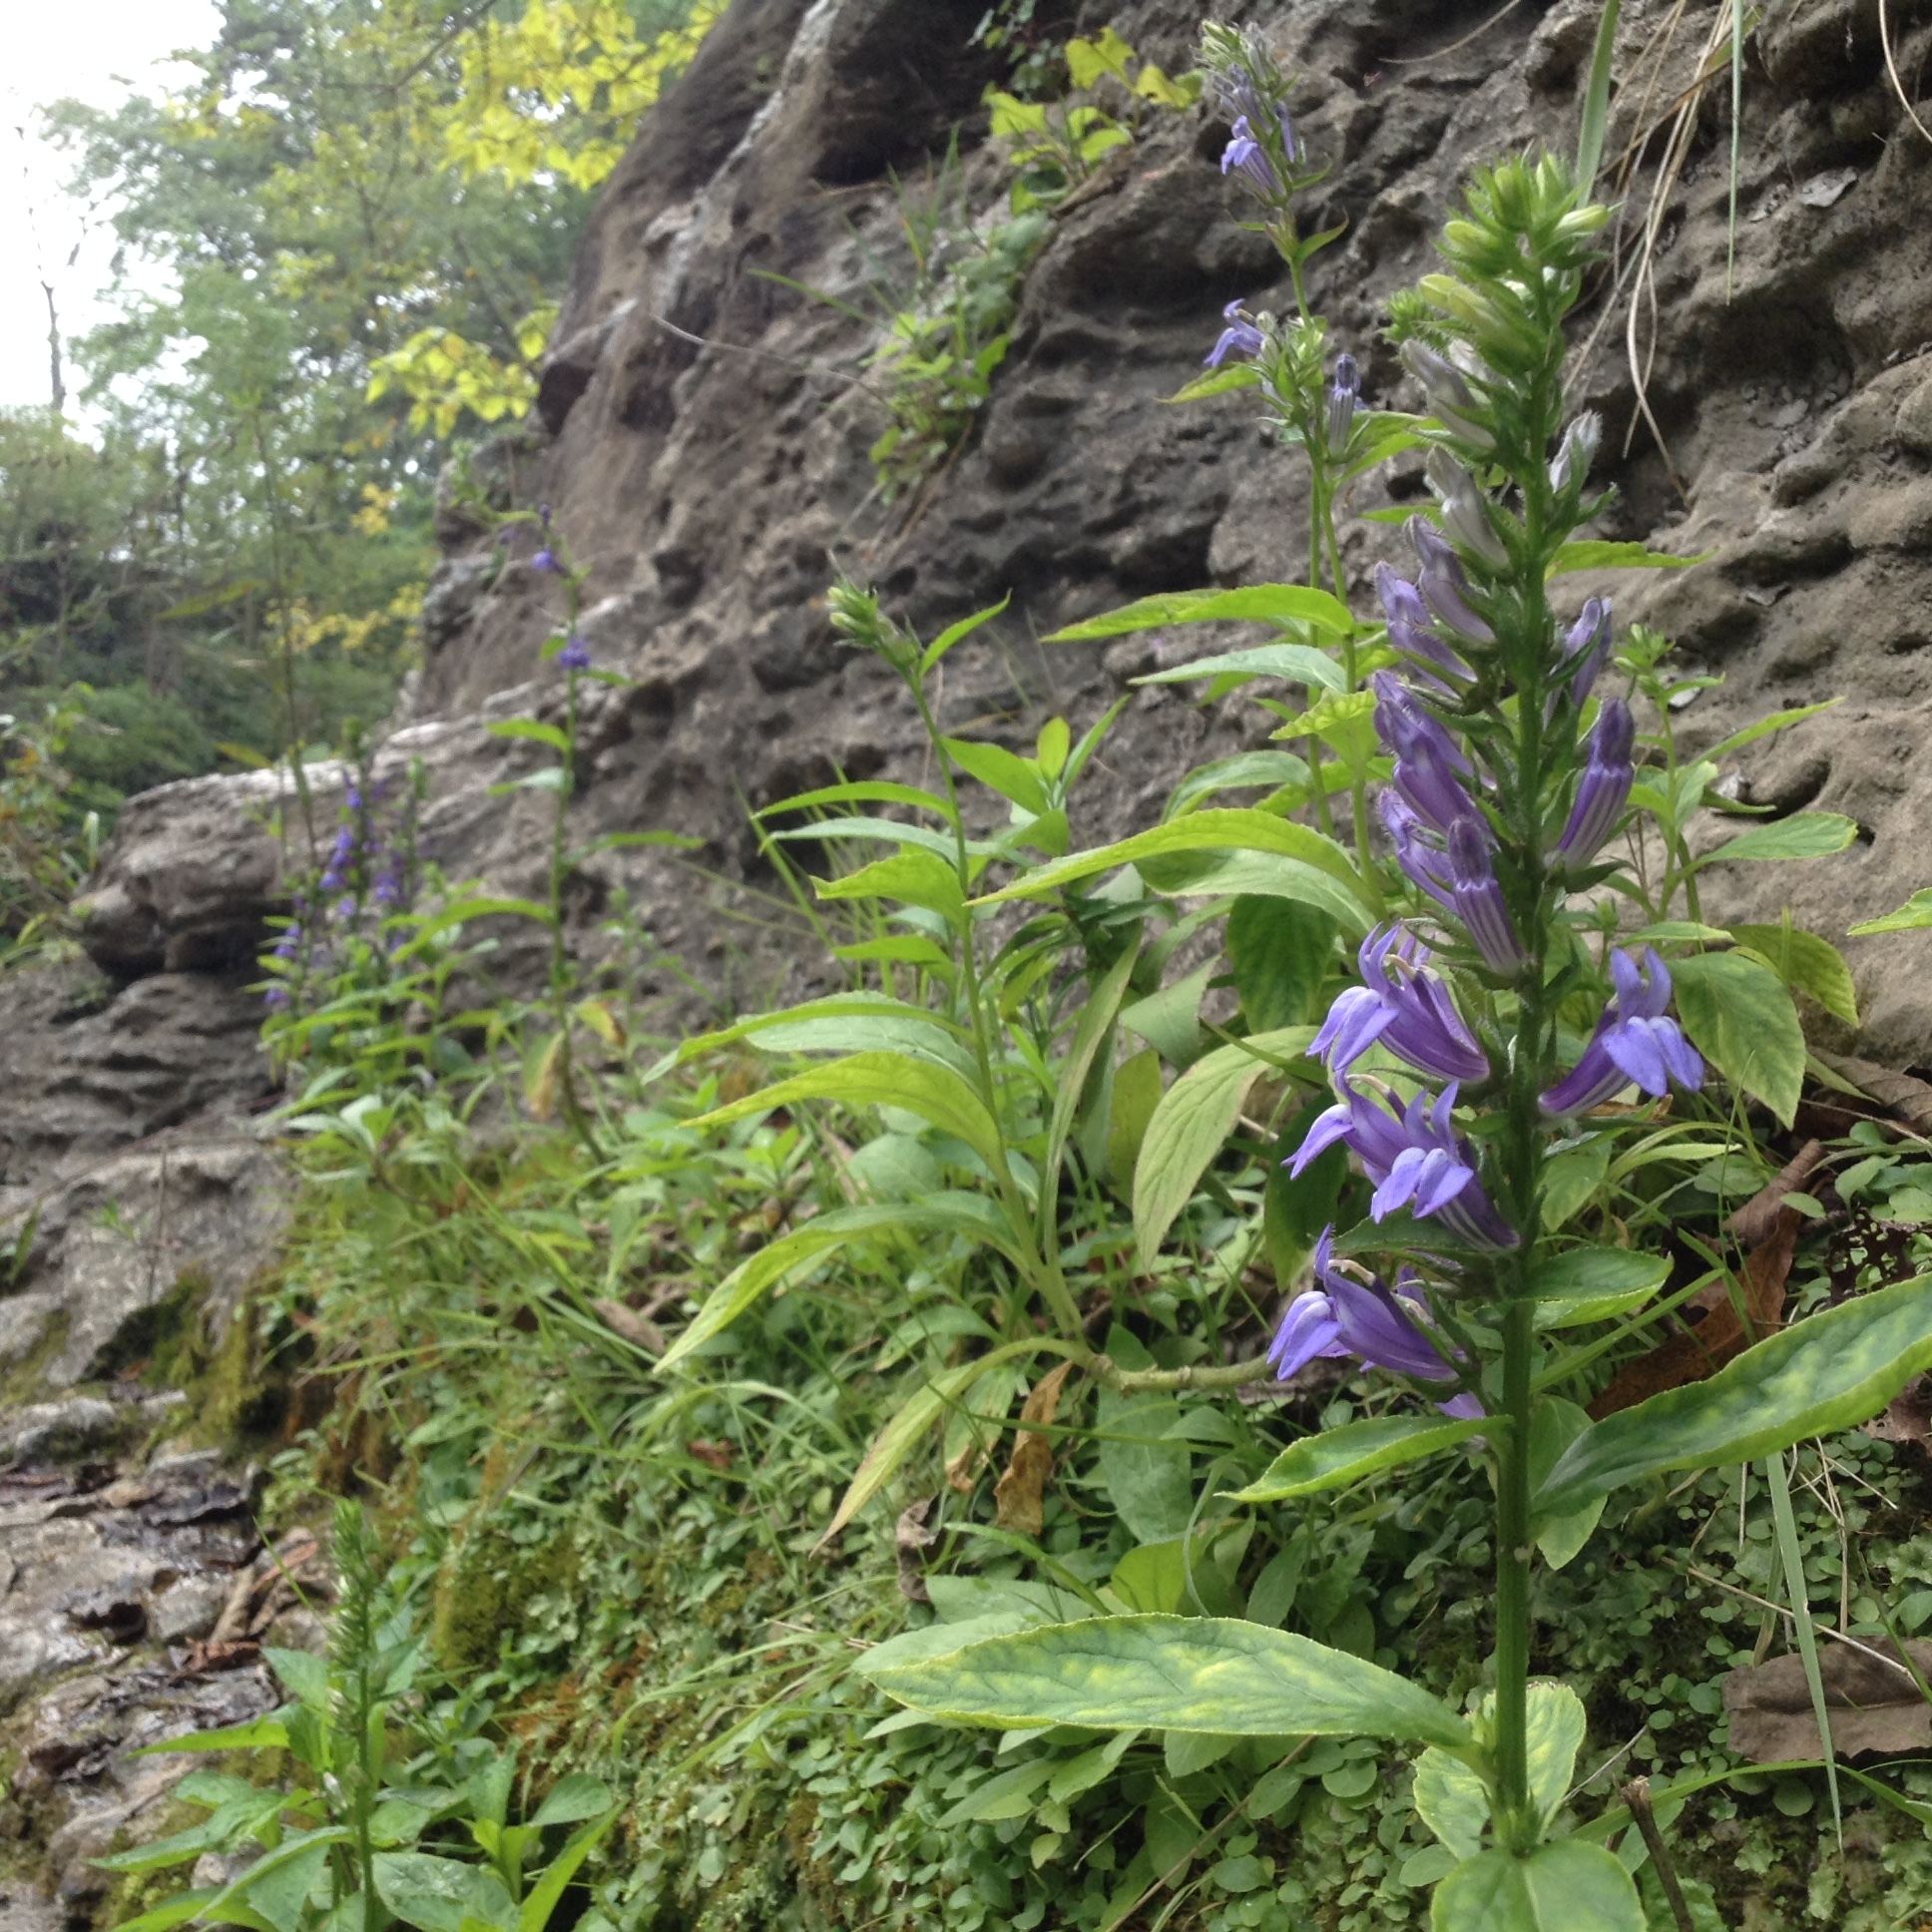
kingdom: Plantae
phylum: Tracheophyta
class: Magnoliopsida
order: Asterales
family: Campanulaceae
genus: Lobelia
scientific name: Lobelia siphilitica
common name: Great lobelia
